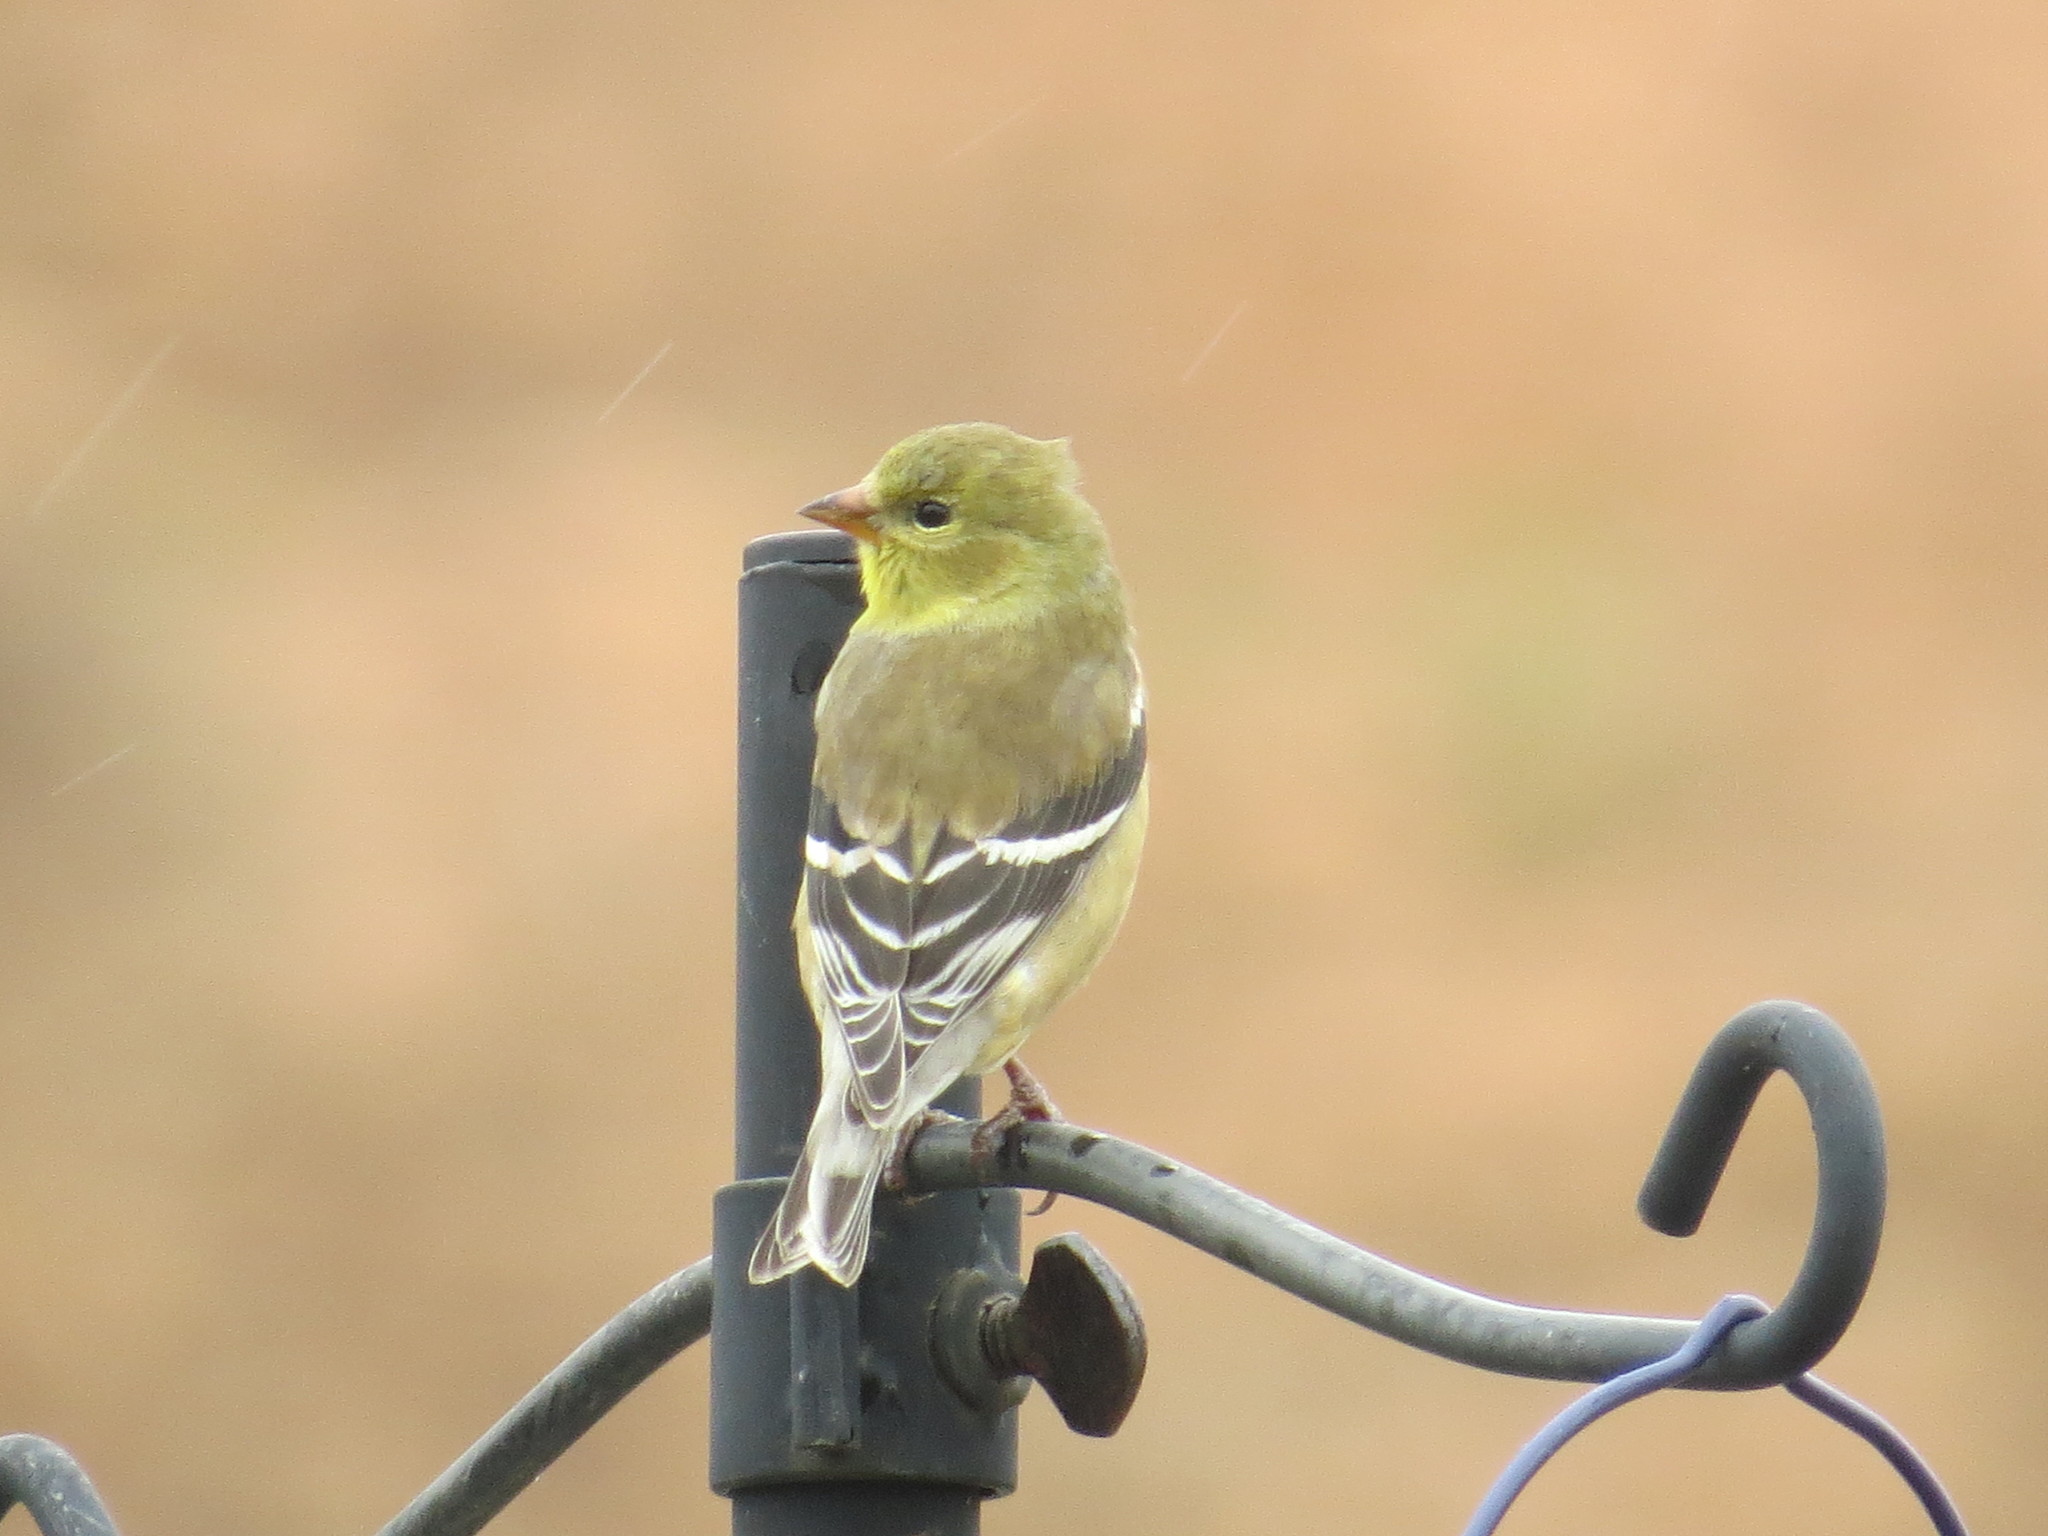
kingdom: Animalia
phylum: Chordata
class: Aves
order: Passeriformes
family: Fringillidae
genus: Spinus
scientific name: Spinus tristis
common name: American goldfinch
